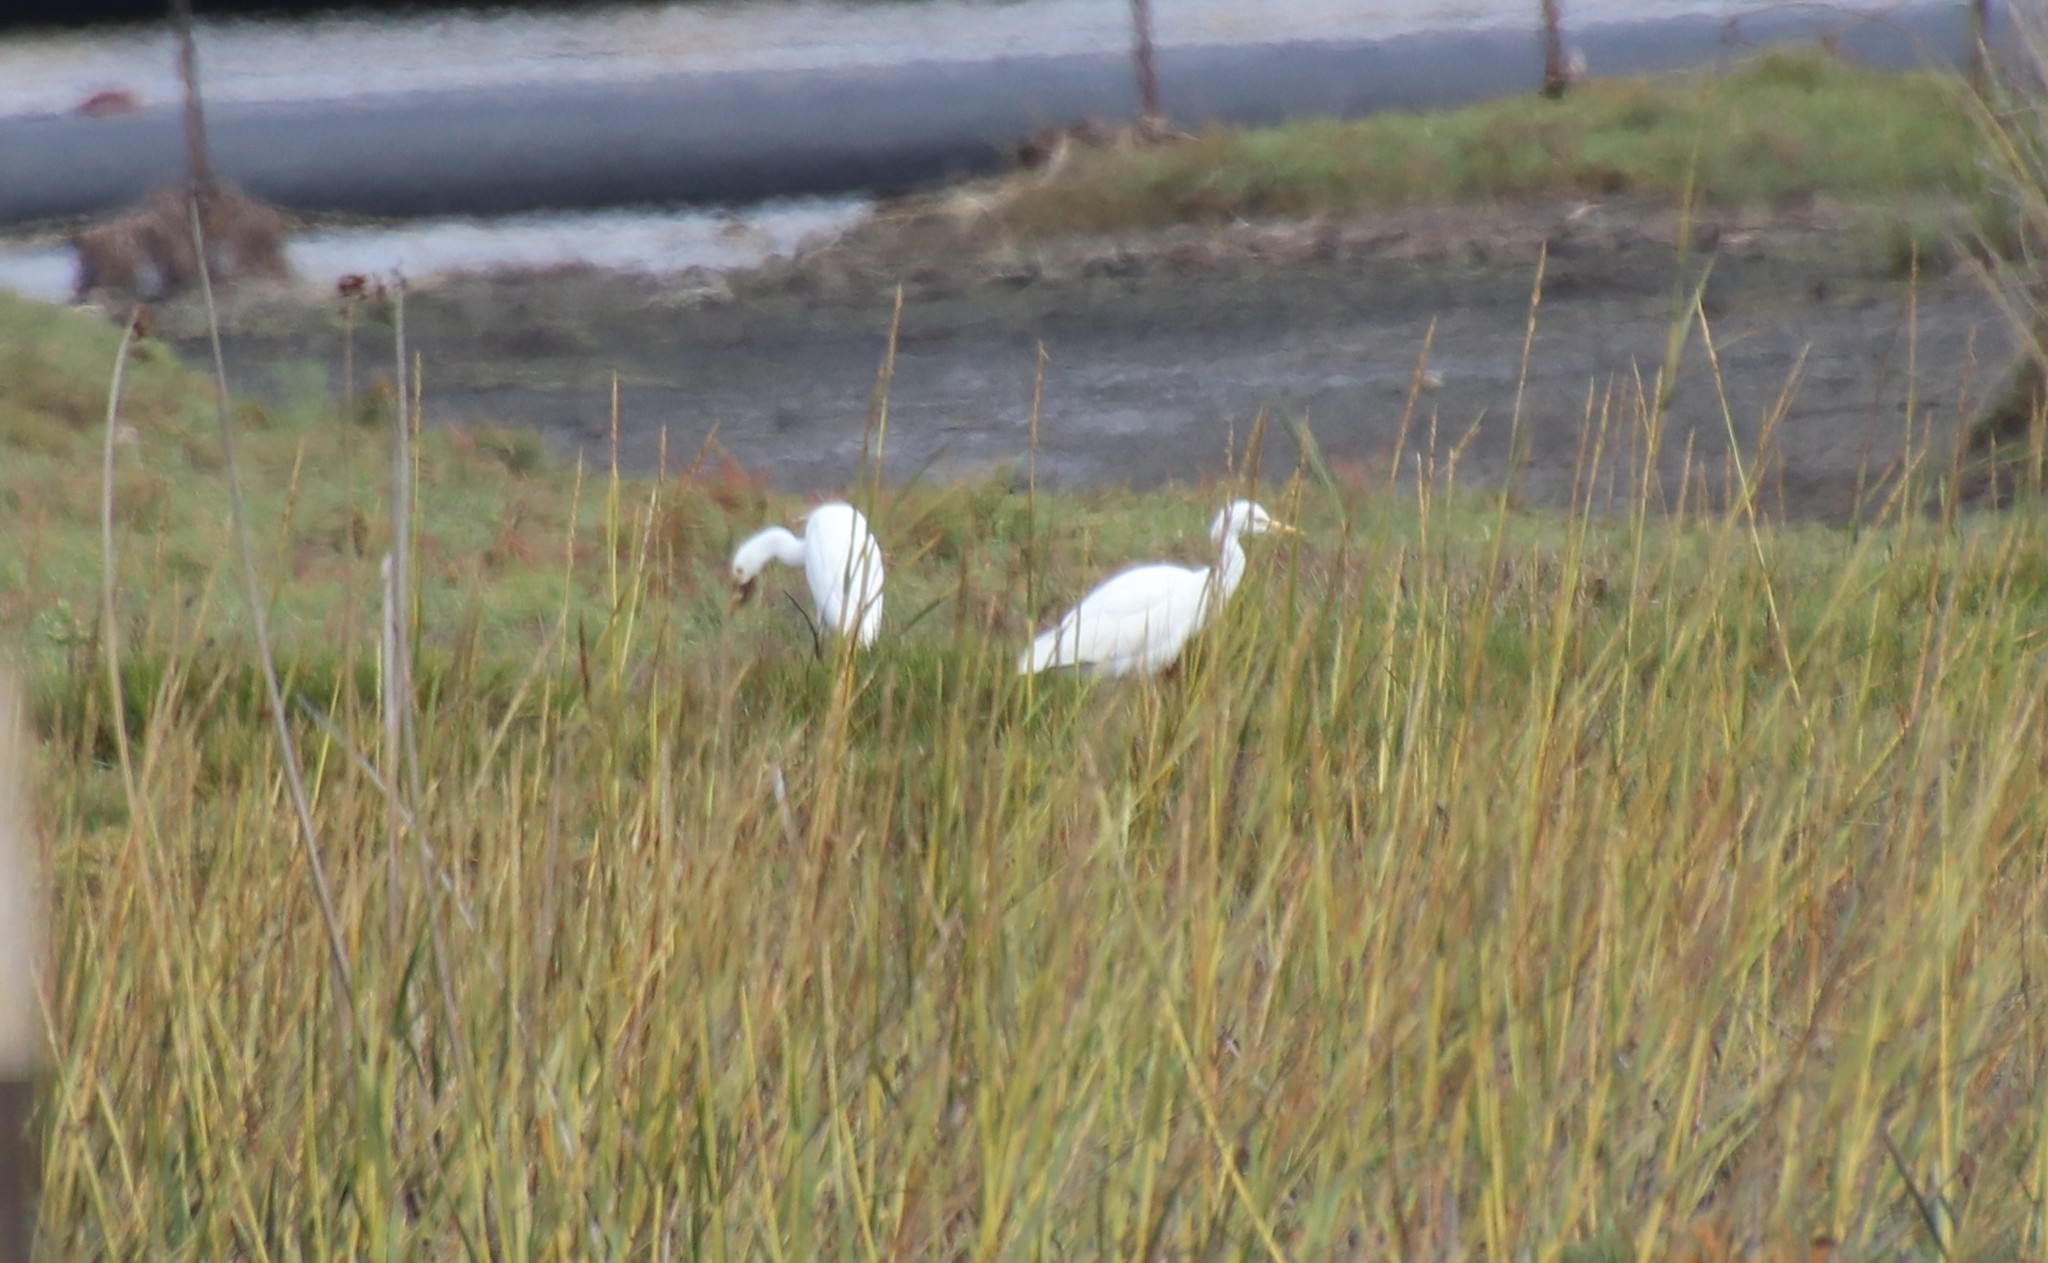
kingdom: Animalia
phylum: Chordata
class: Aves
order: Pelecaniformes
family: Ardeidae
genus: Bubulcus
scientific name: Bubulcus ibis
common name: Cattle egret
